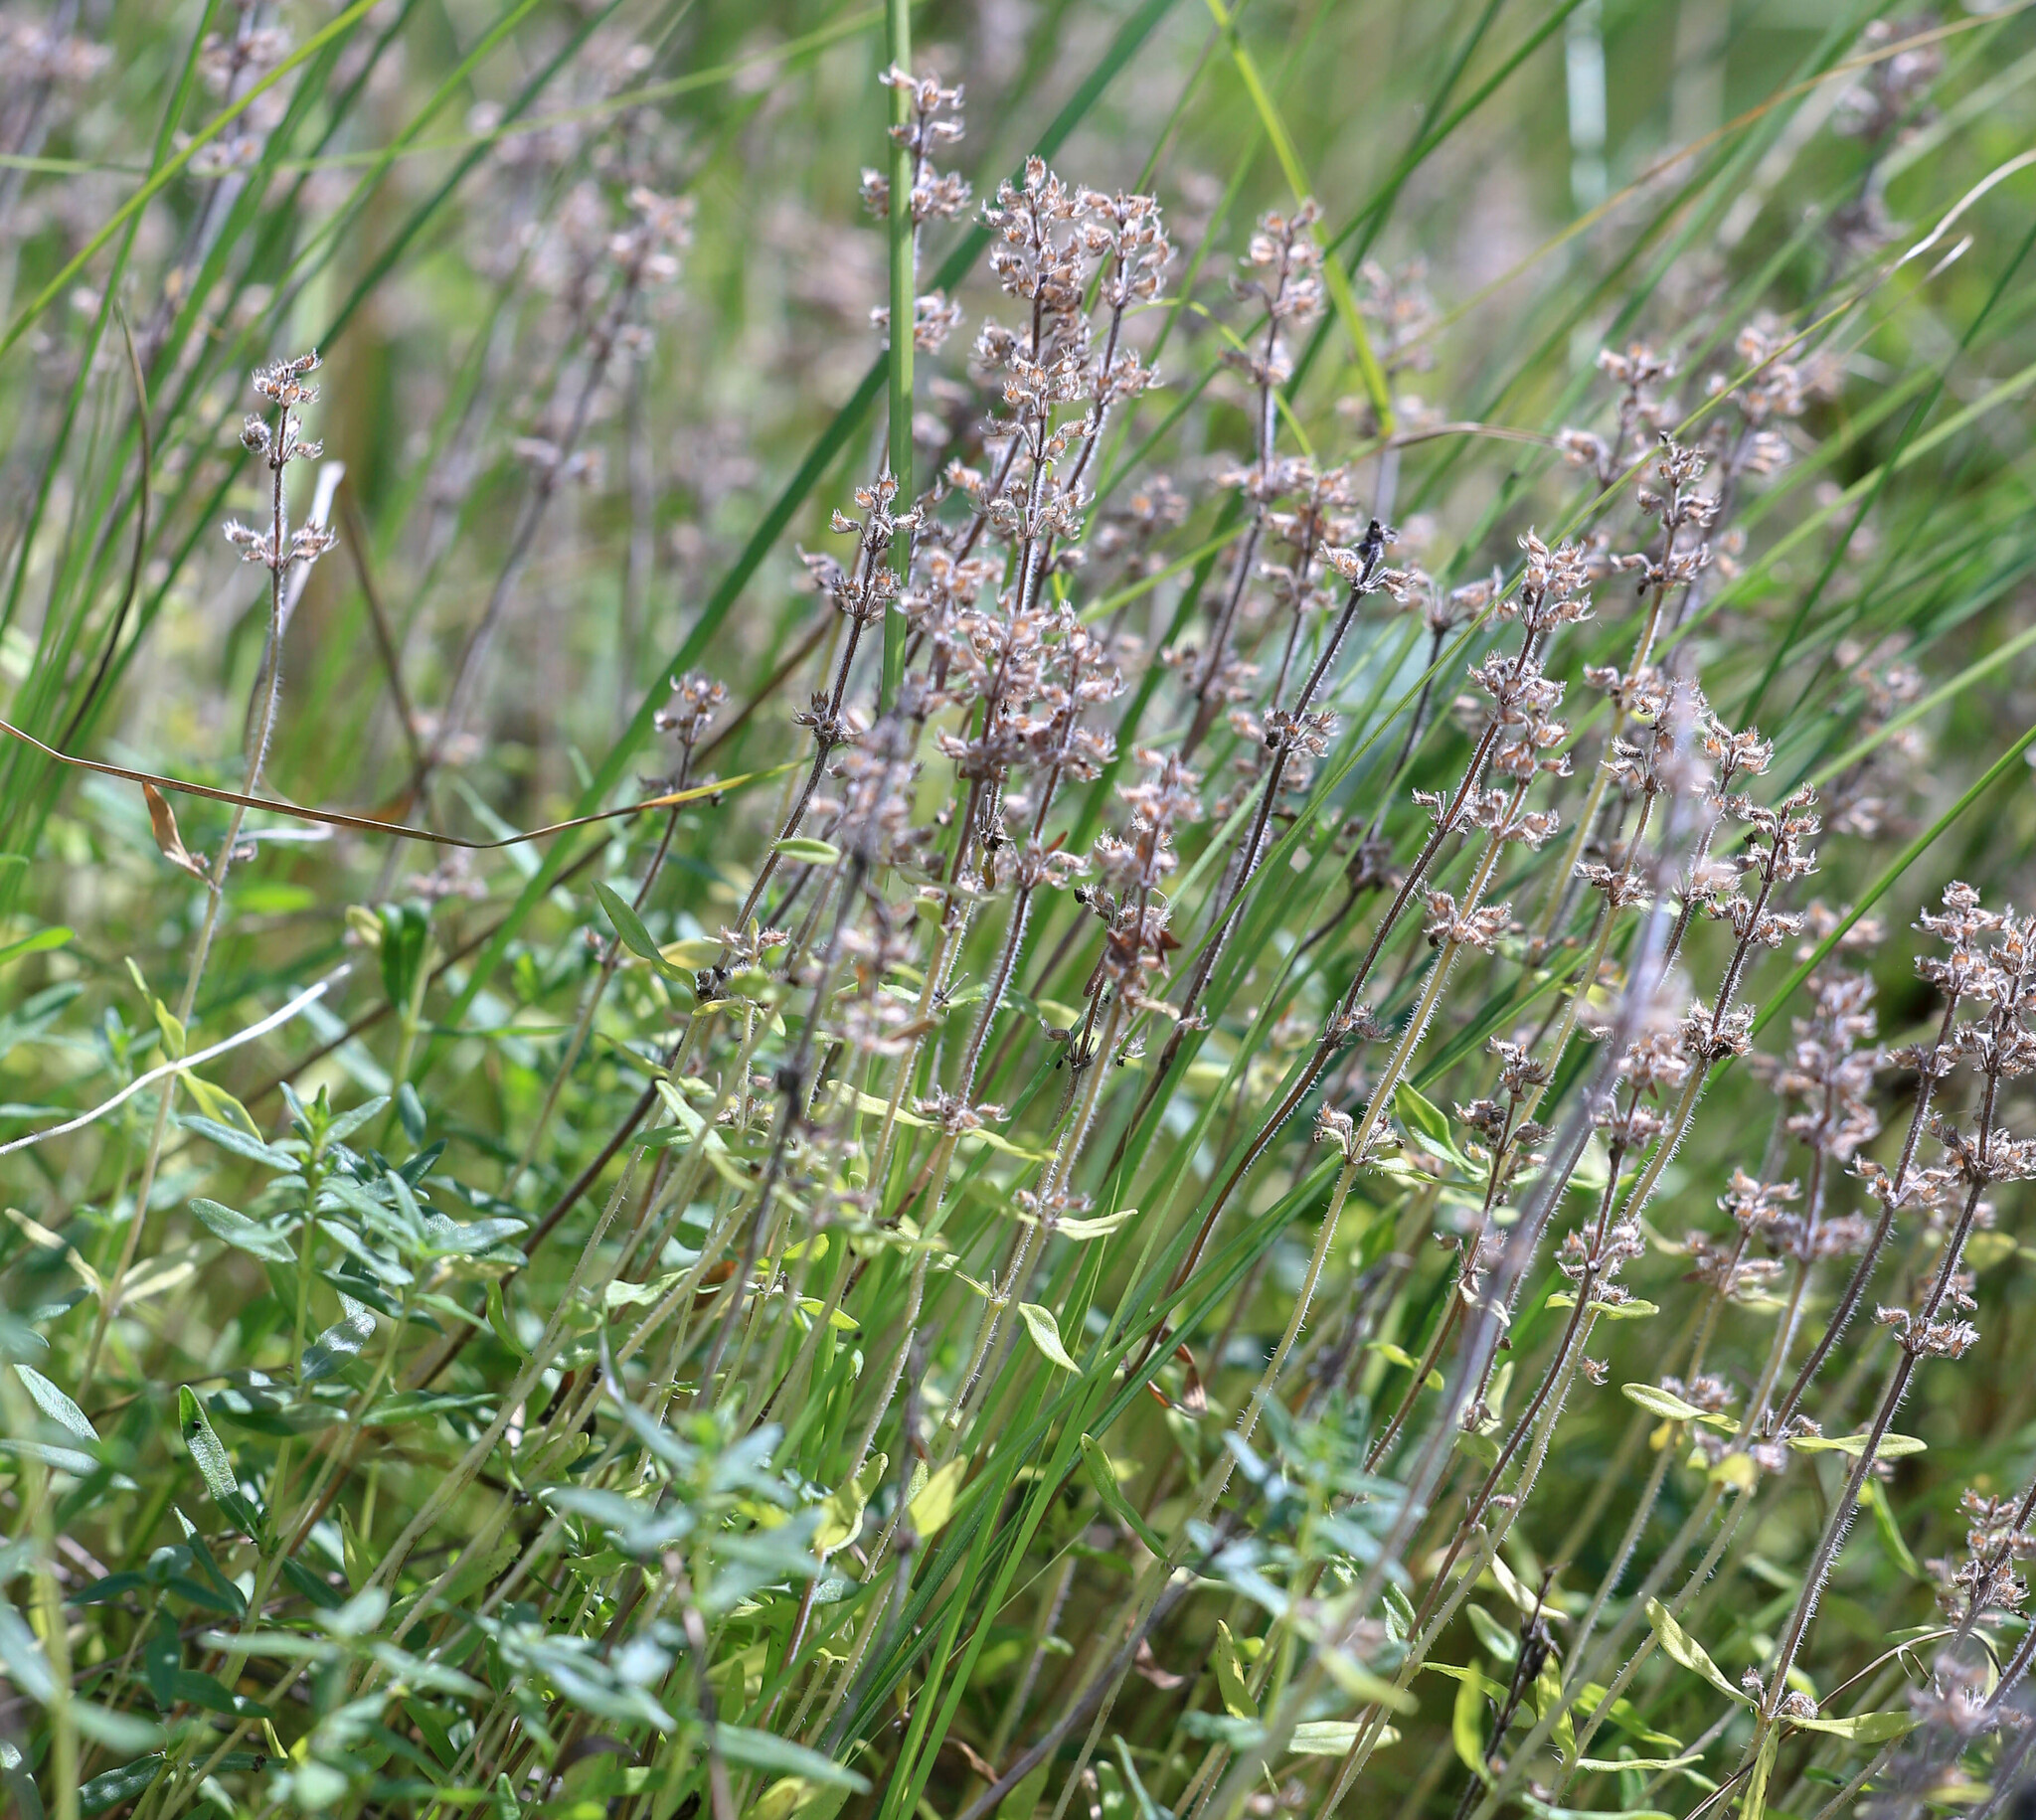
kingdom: Plantae
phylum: Tracheophyta
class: Magnoliopsida
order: Lamiales
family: Lamiaceae
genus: Thymus
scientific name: Thymus pannonicus
